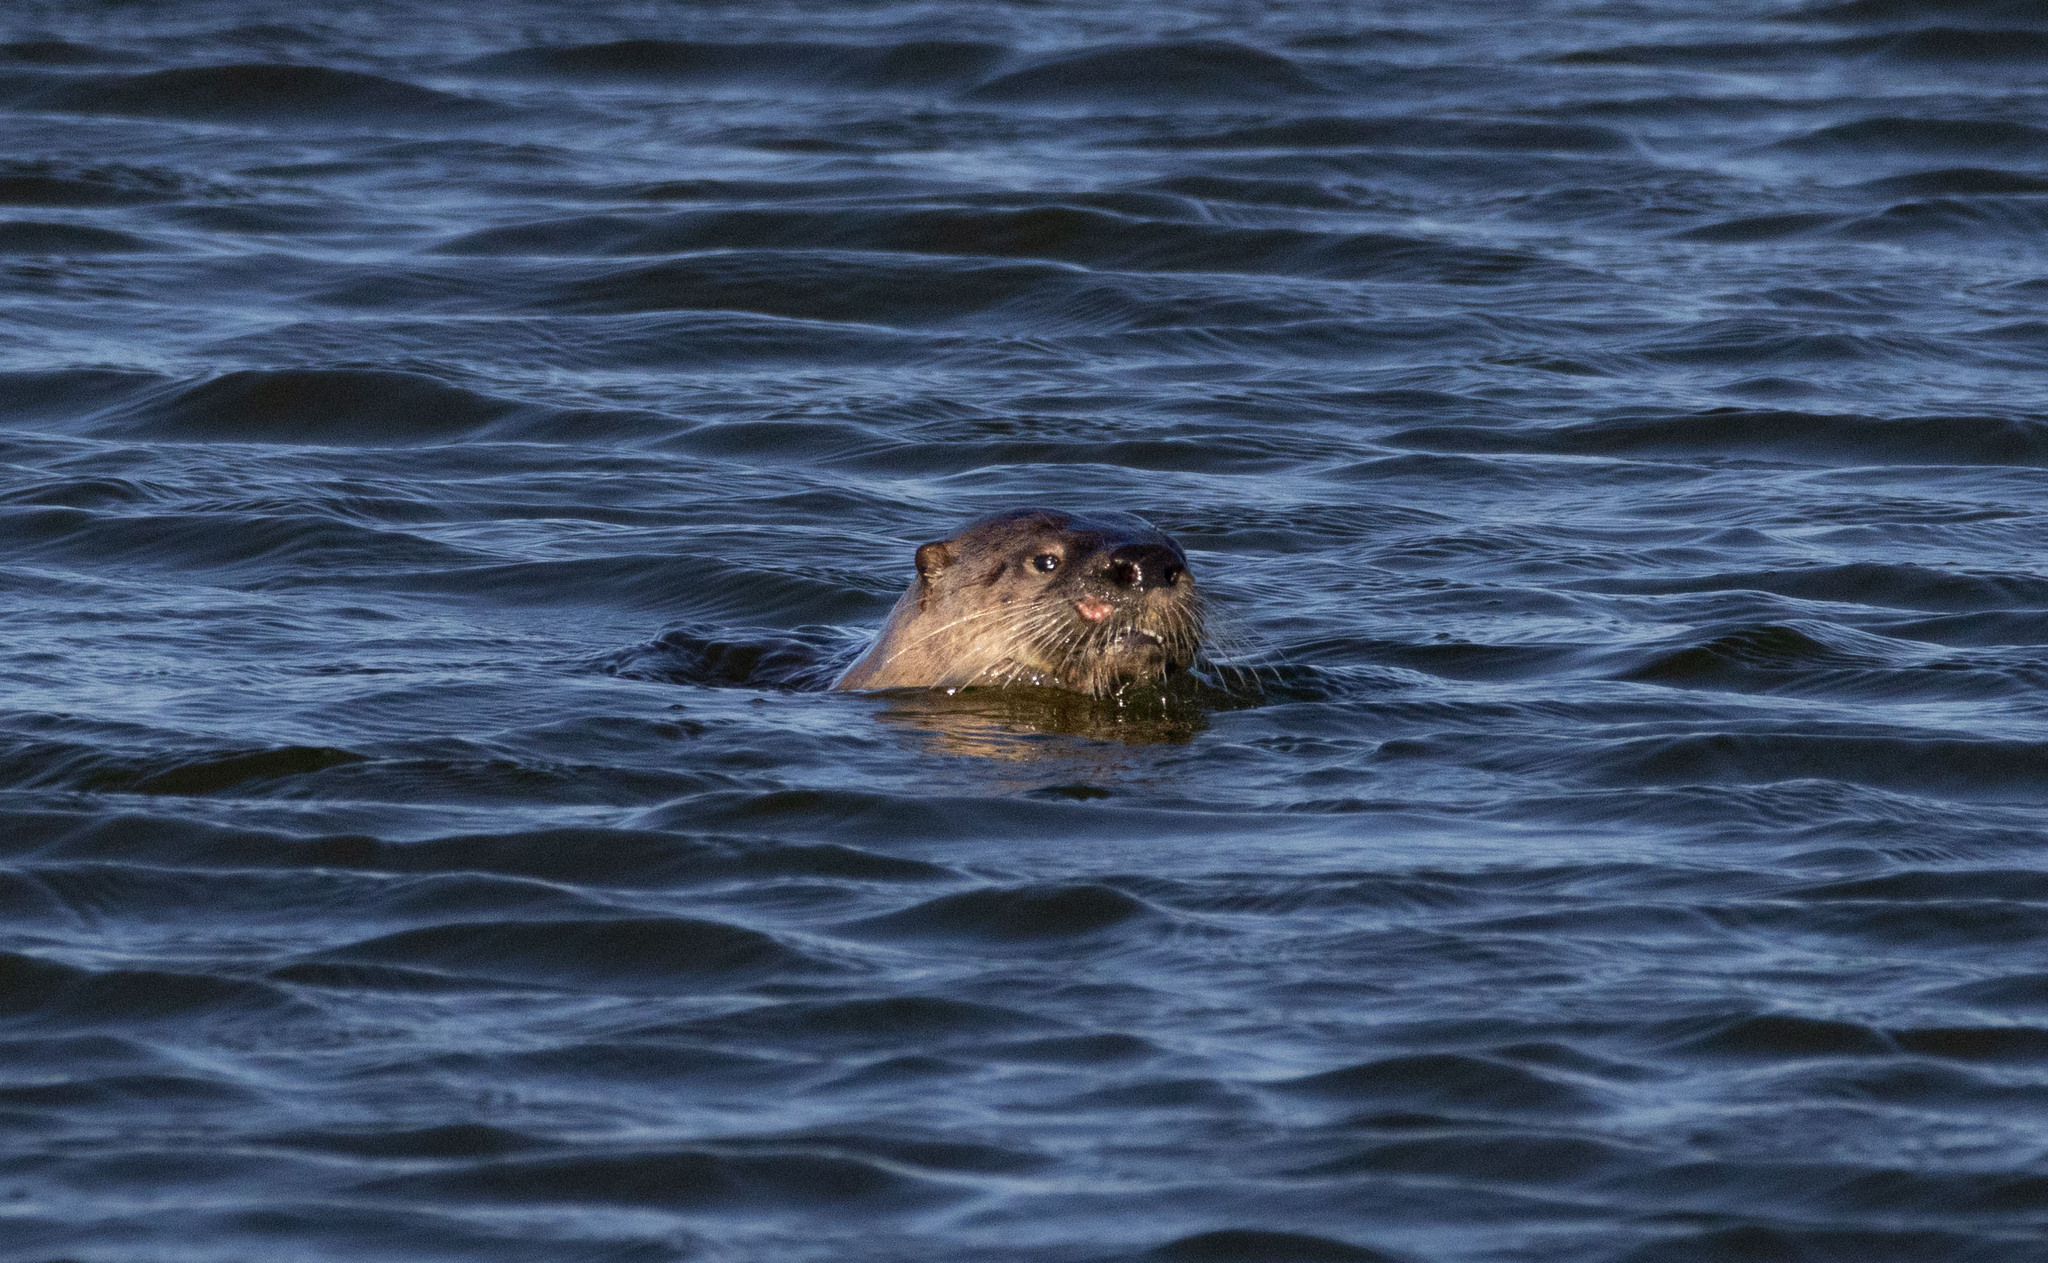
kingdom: Animalia
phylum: Chordata
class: Mammalia
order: Carnivora
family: Mustelidae
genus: Lontra
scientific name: Lontra canadensis
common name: North american river otter
